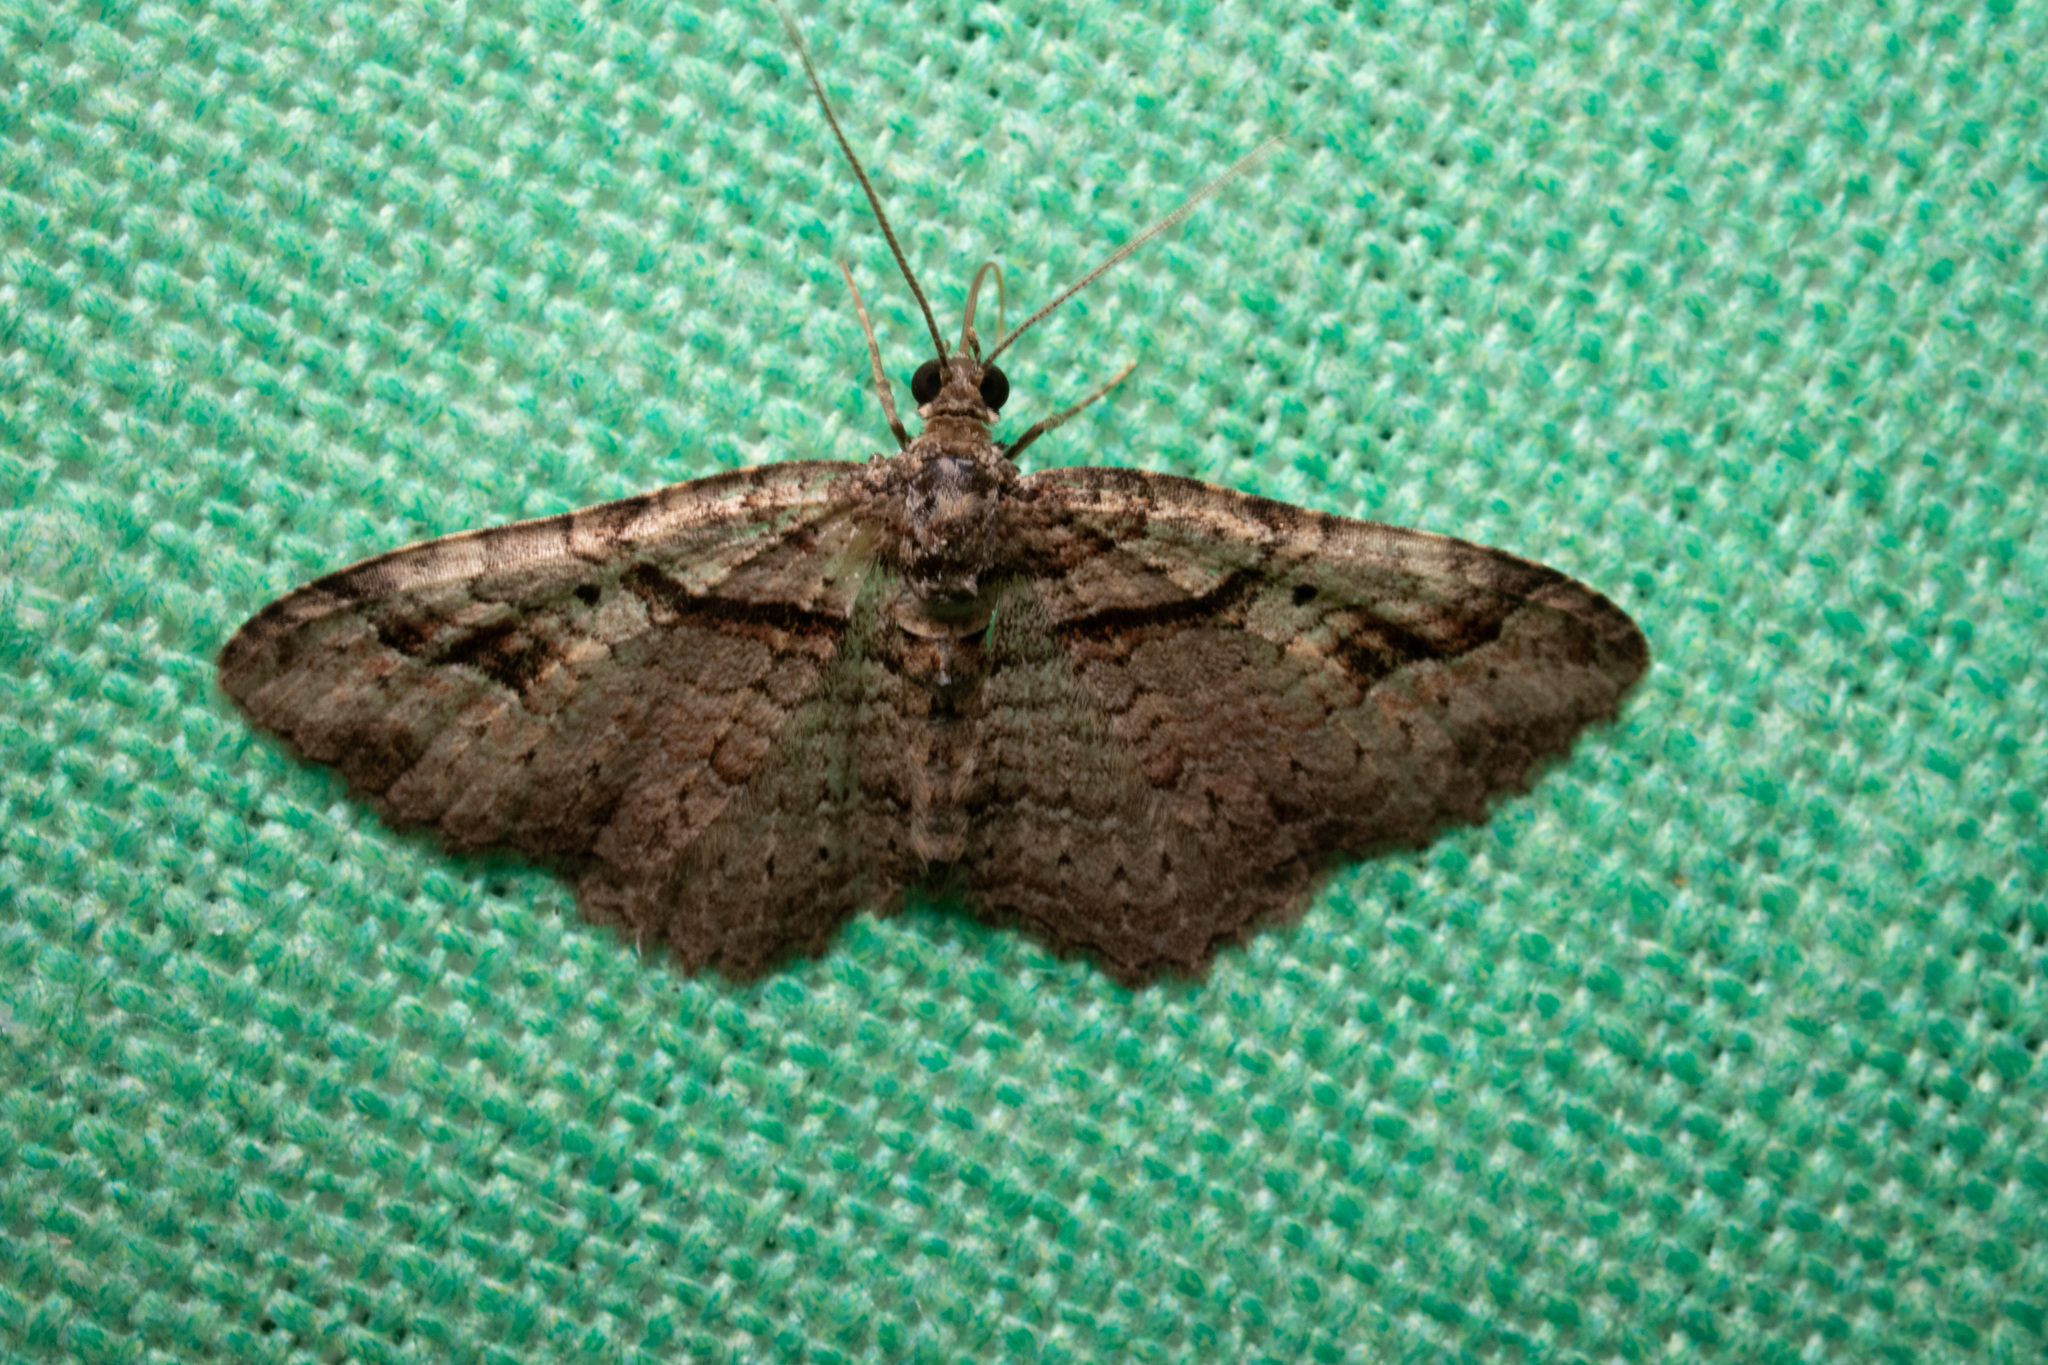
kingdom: Animalia
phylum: Arthropoda
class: Insecta
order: Lepidoptera
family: Geometridae
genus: Costaconvexa
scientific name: Costaconvexa centrostrigaria
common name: Bent-line carpet
